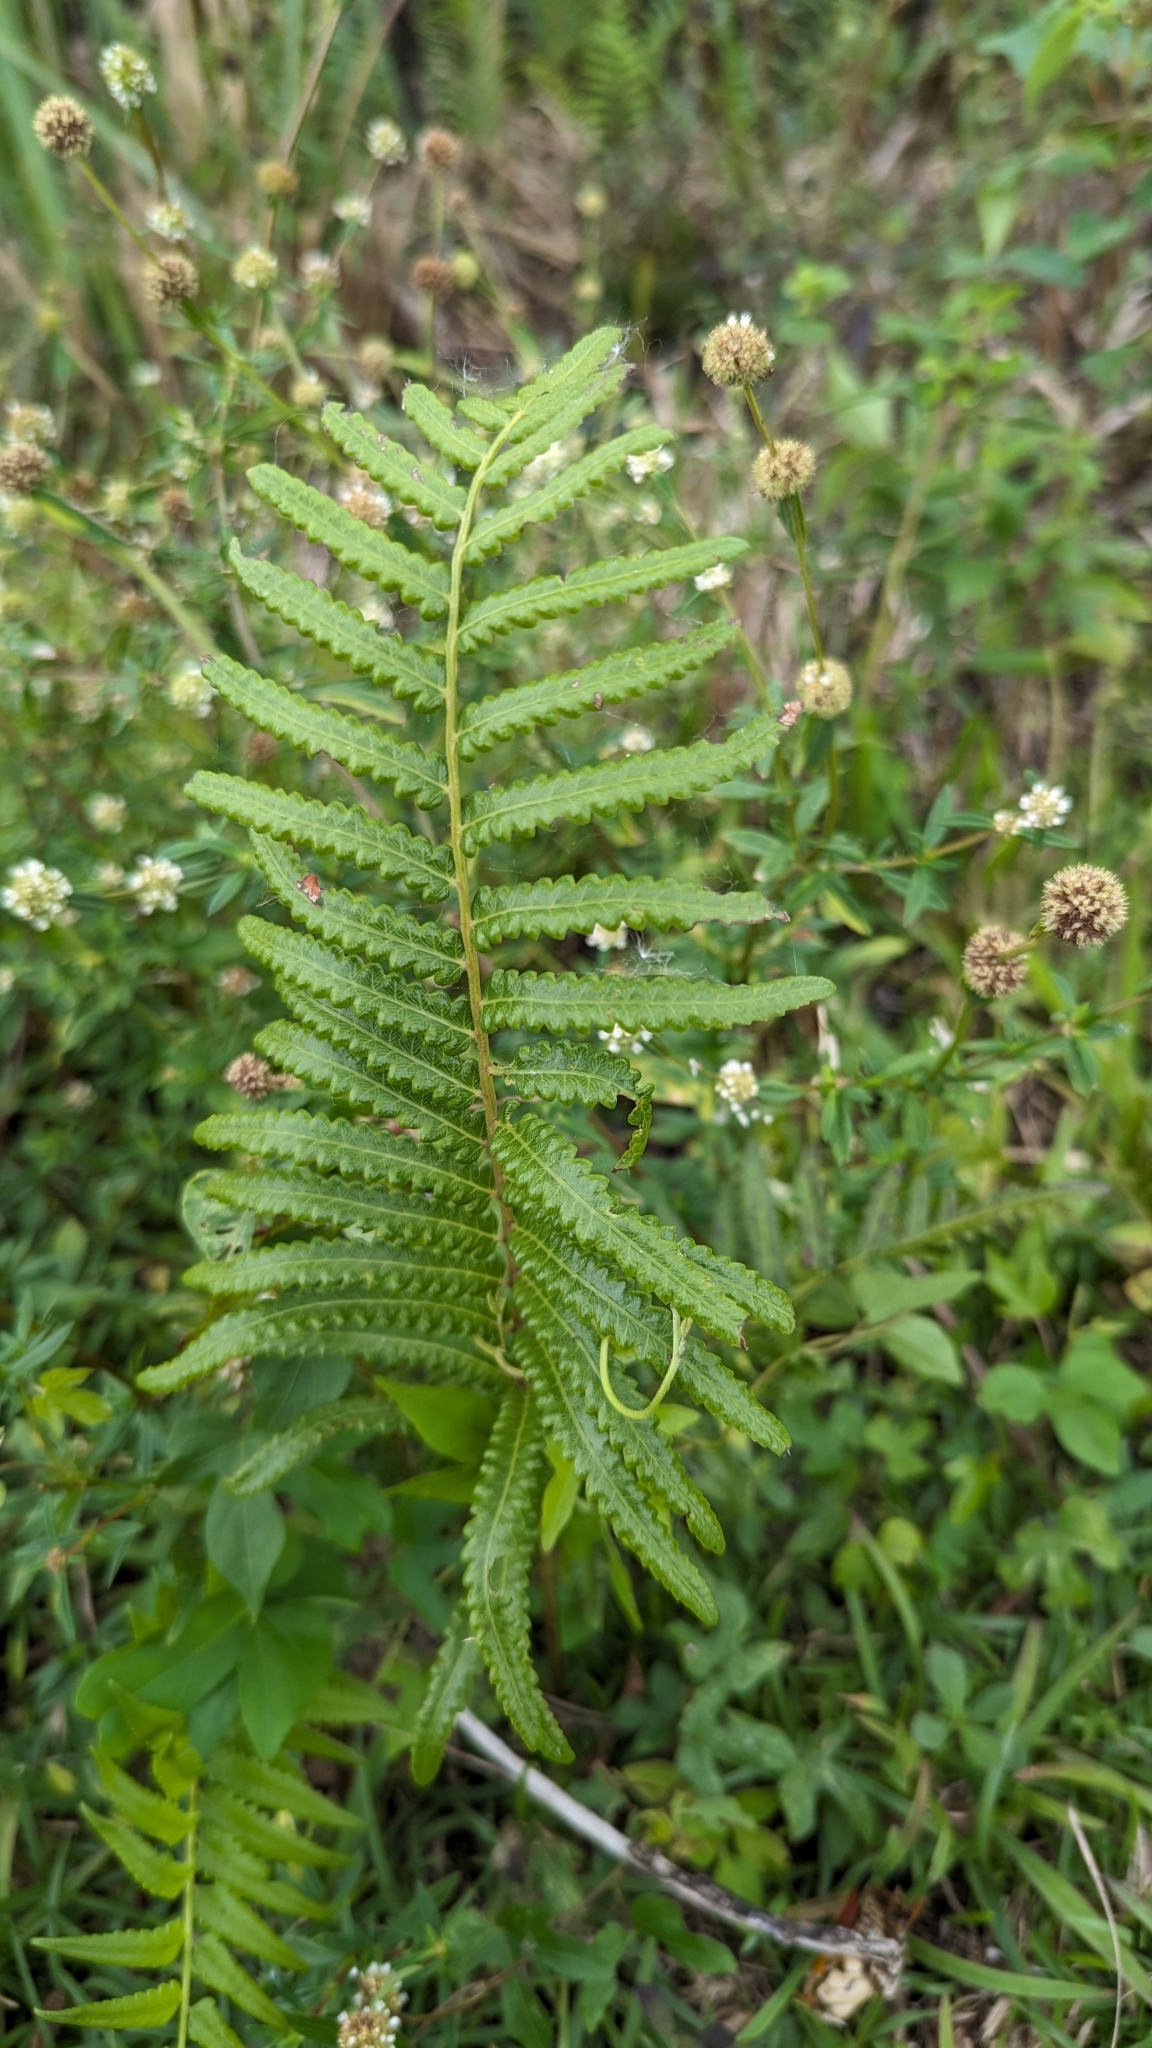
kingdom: Plantae
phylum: Tracheophyta
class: Polypodiopsida
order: Polypodiales
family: Thelypteridaceae
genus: Cyclosorus
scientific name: Cyclosorus interruptus
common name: Neke fern
